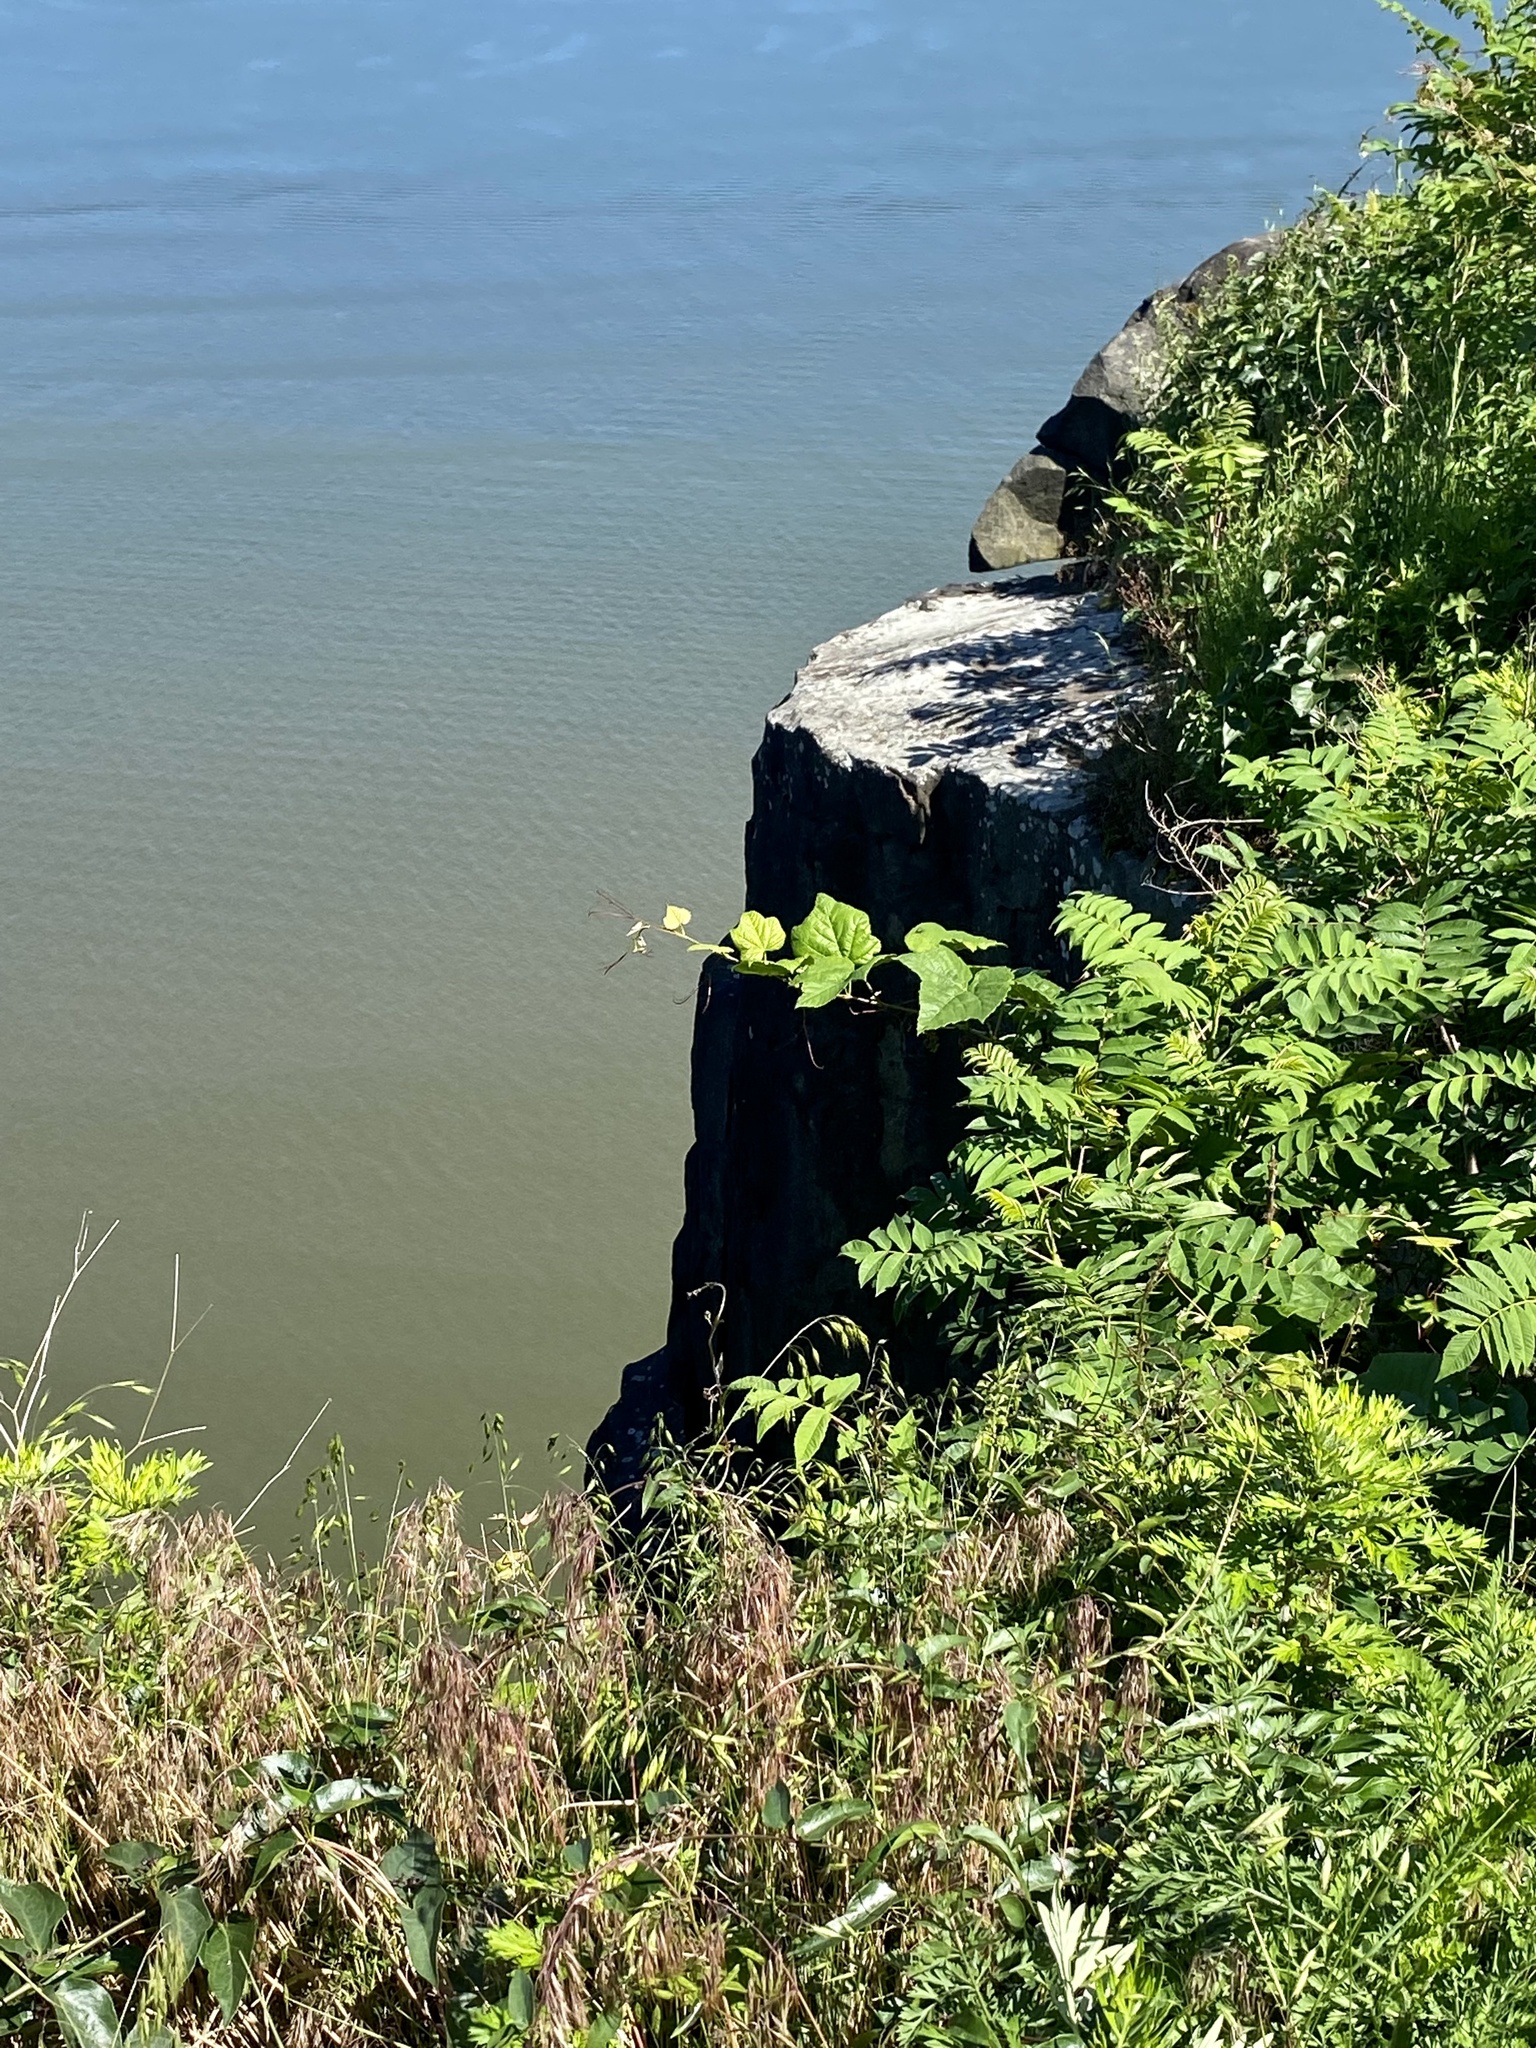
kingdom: Plantae
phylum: Tracheophyta
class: Magnoliopsida
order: Lamiales
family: Lamiaceae
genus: Leonurus
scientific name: Leonurus cardiaca
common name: Motherwort
